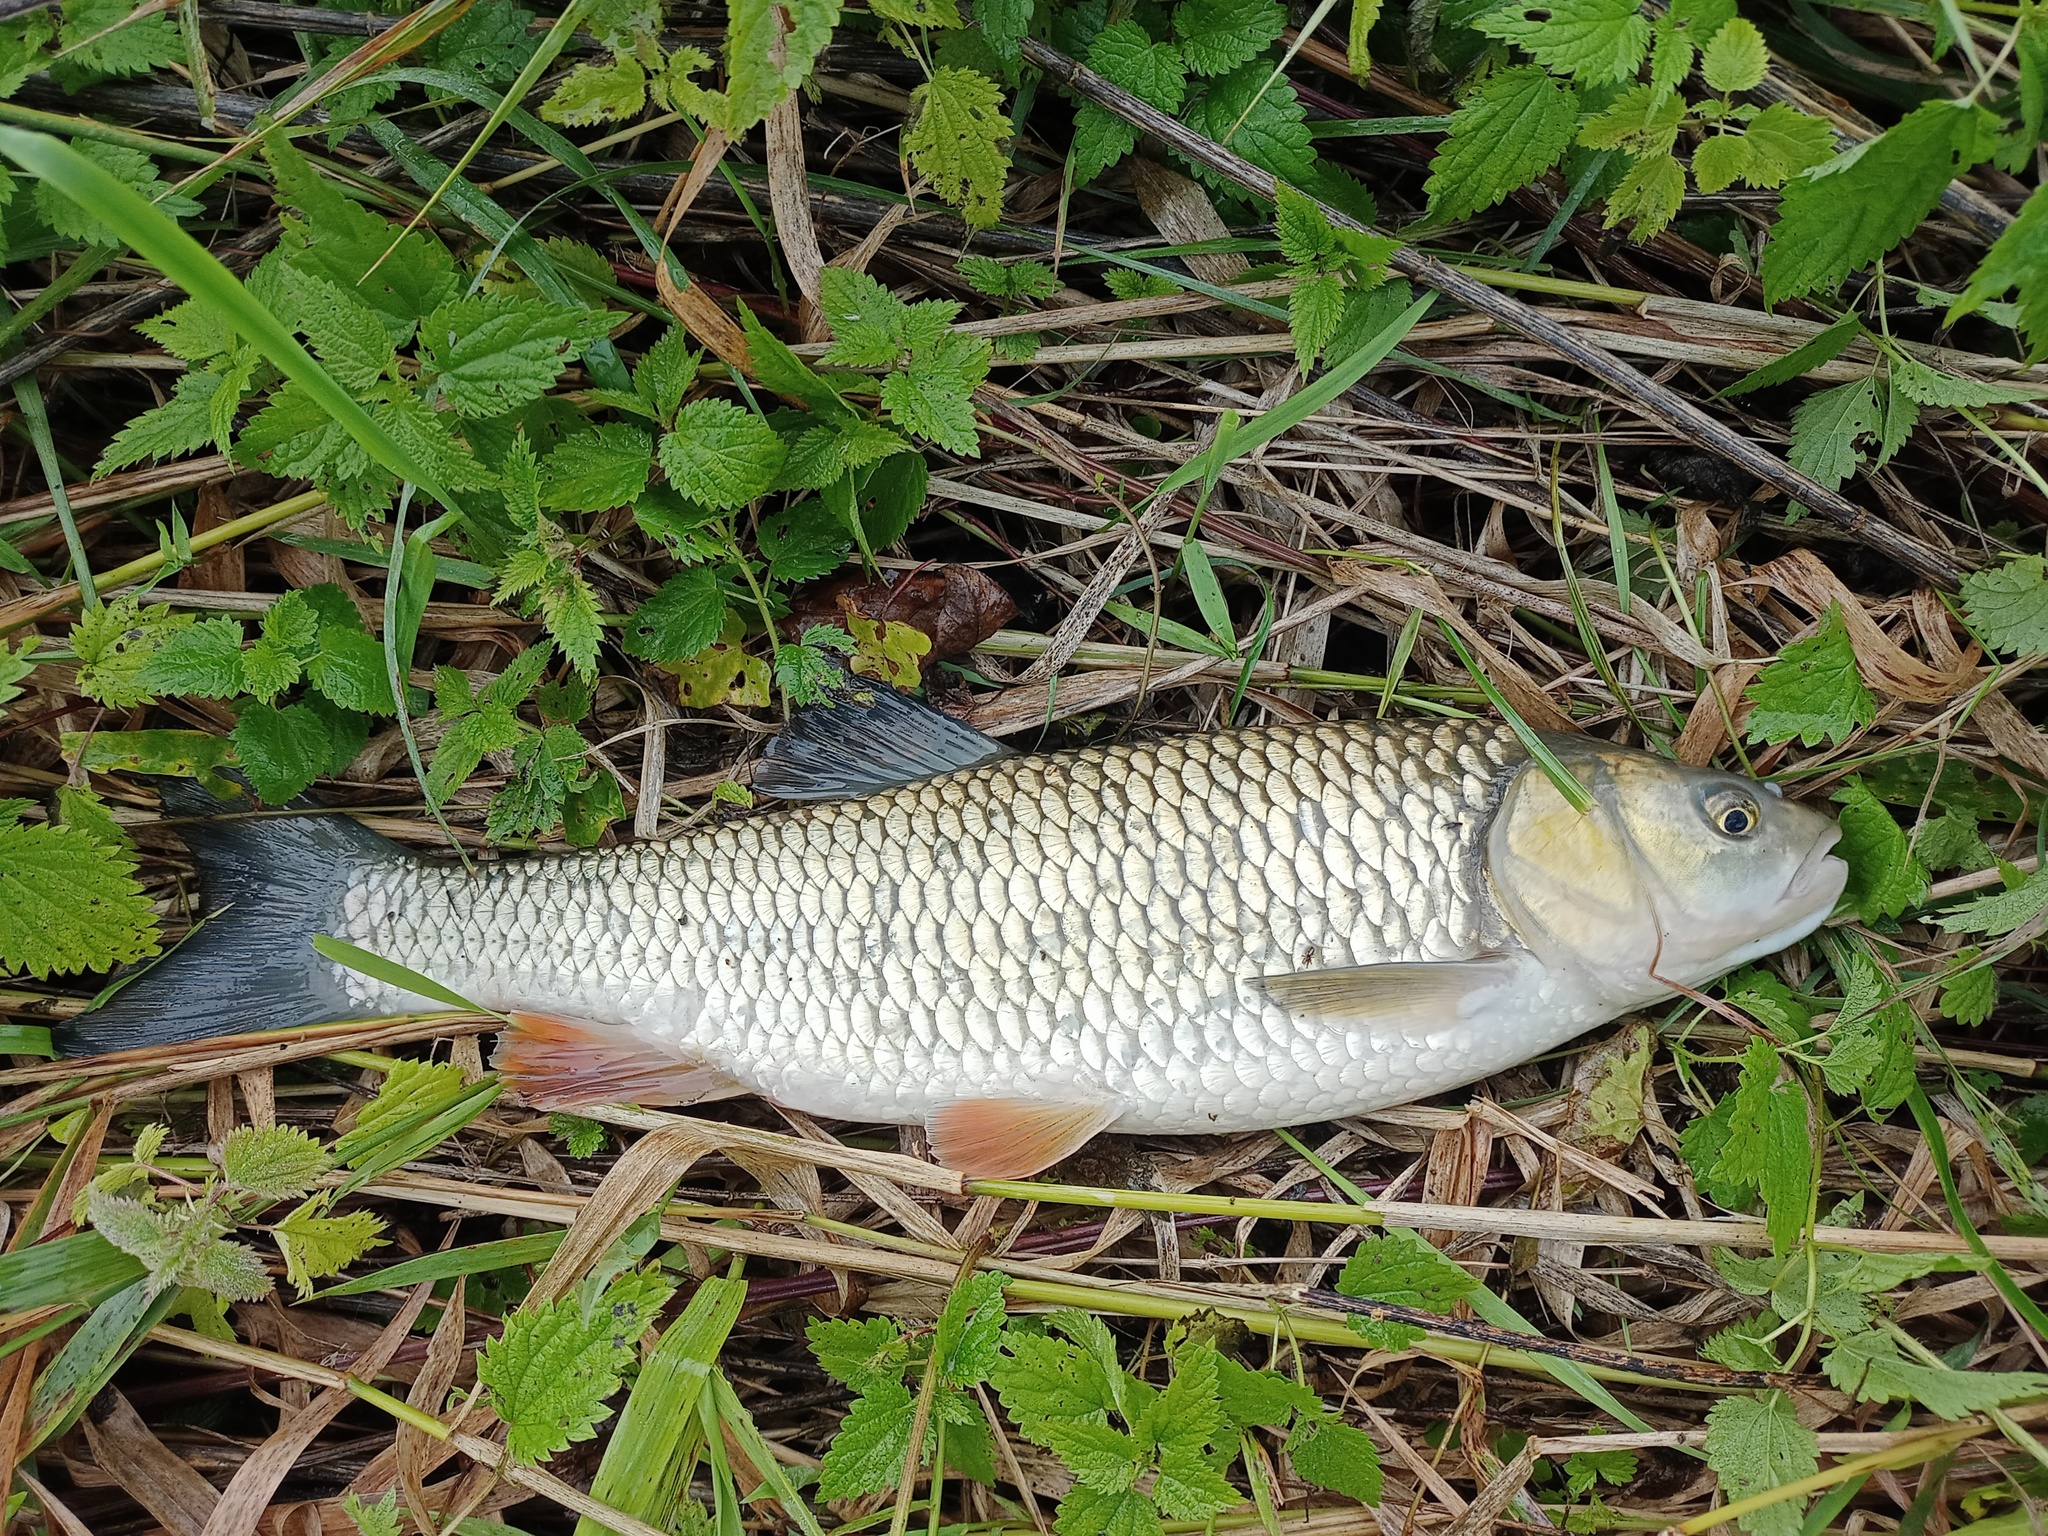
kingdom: Animalia
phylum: Chordata
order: Cypriniformes
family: Cyprinidae
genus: Squalius
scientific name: Squalius cephalus
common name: Chub
